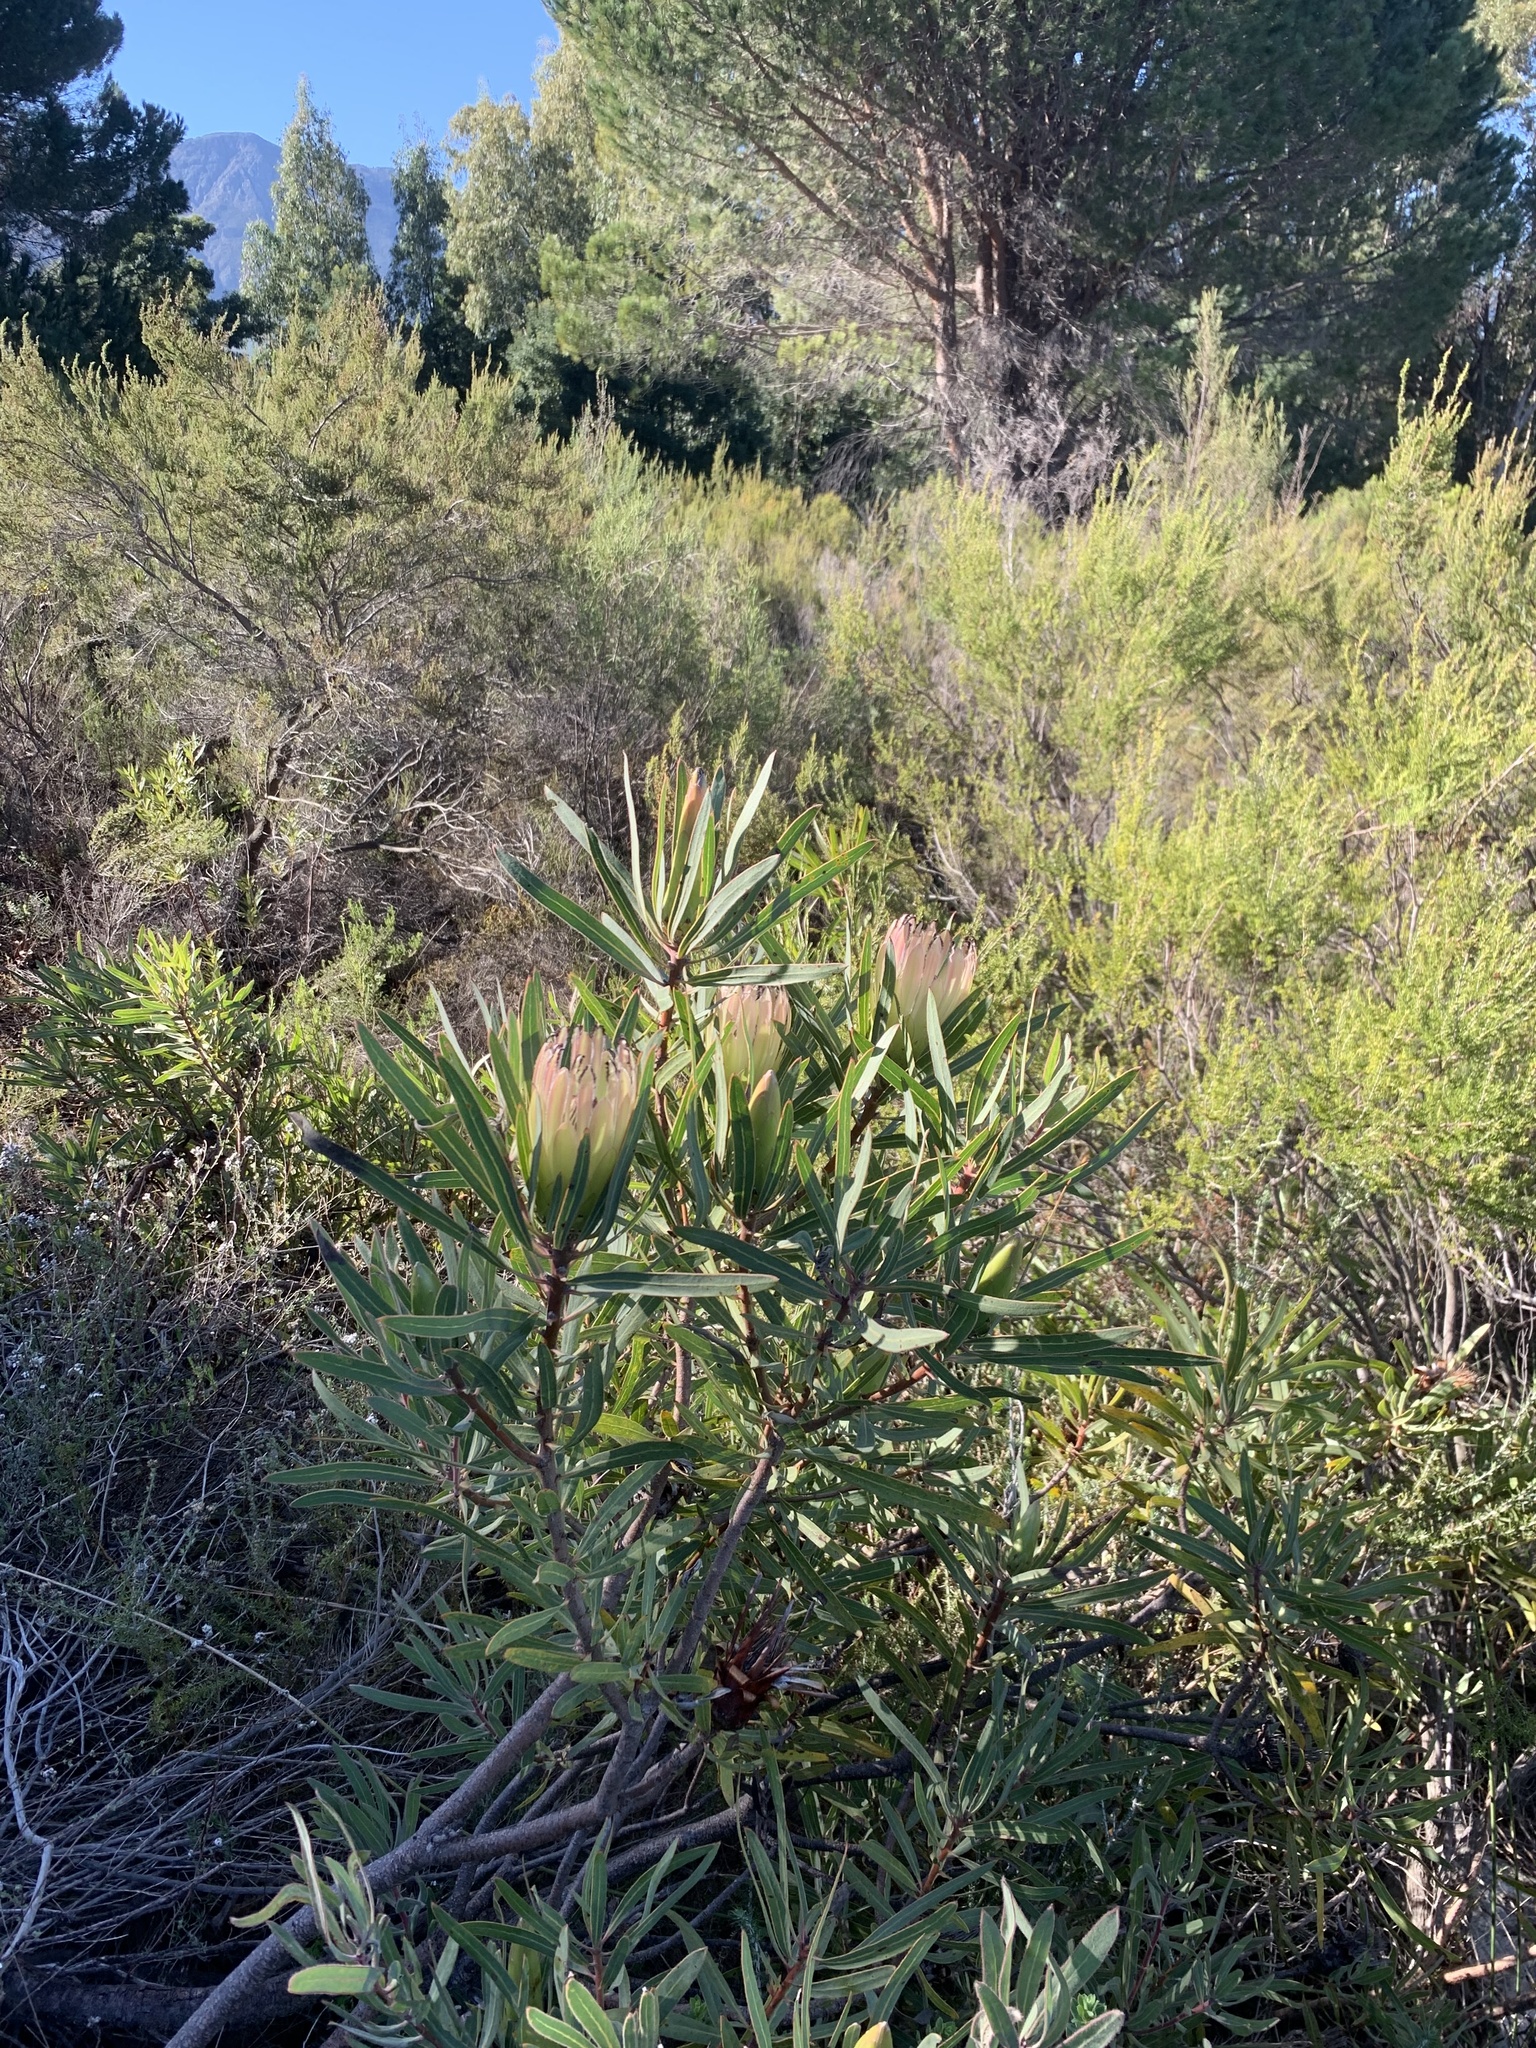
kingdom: Plantae
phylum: Tracheophyta
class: Magnoliopsida
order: Proteales
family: Proteaceae
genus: Protea
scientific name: Protea burchellii
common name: Burchell's sugarbush
